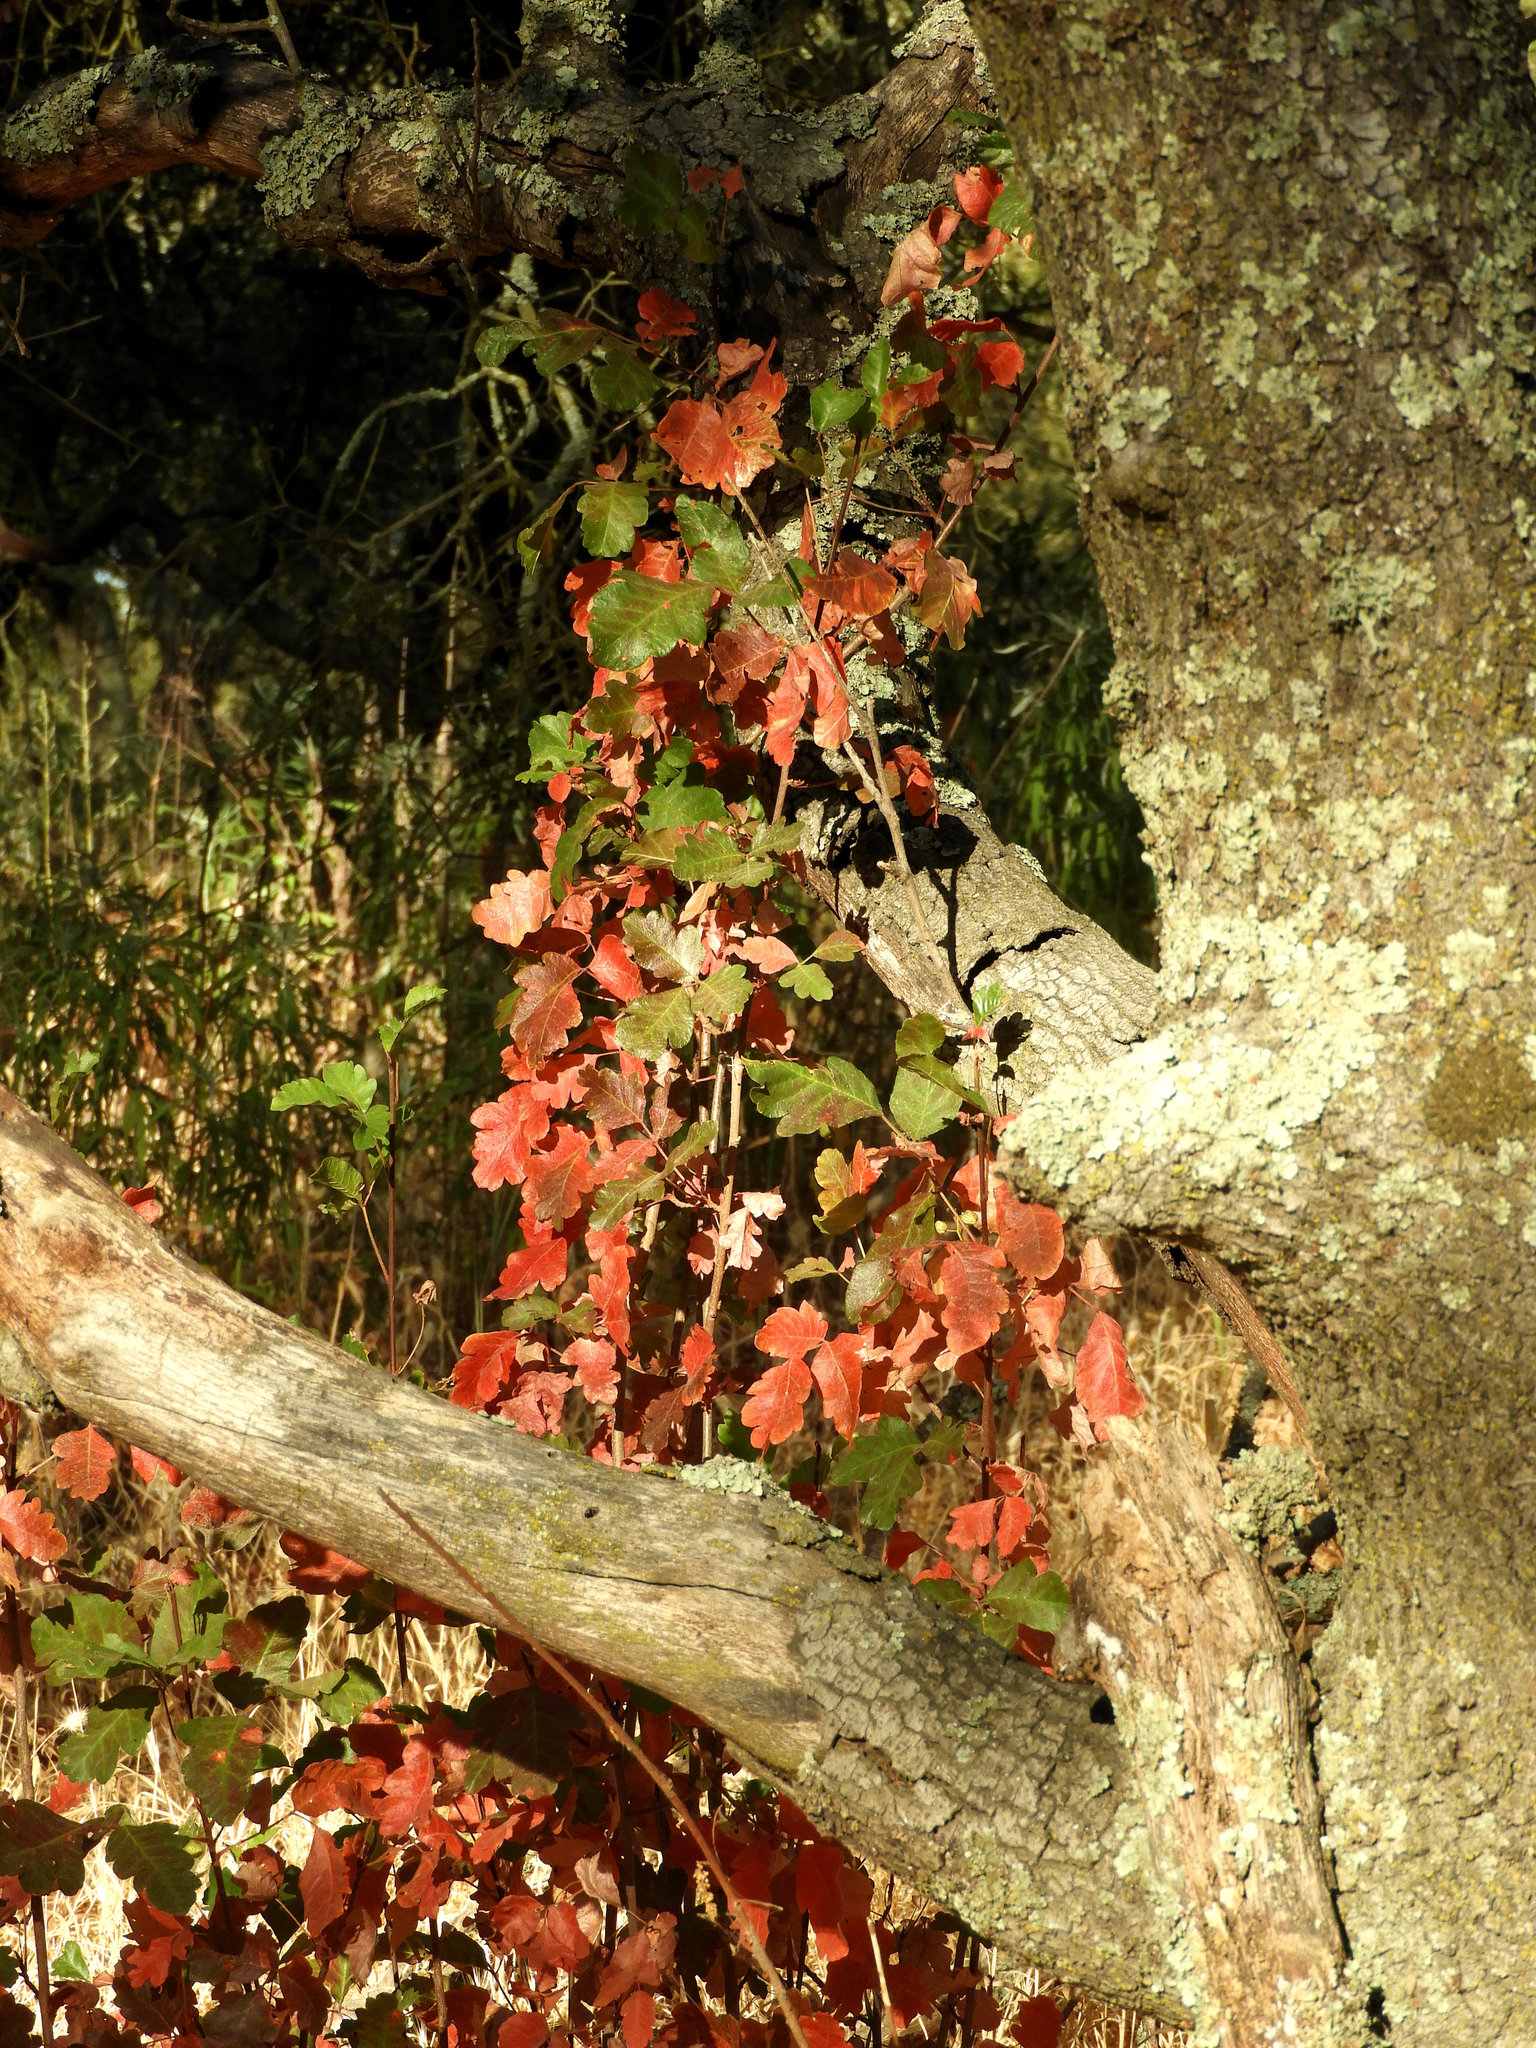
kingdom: Plantae
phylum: Tracheophyta
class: Magnoliopsida
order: Sapindales
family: Anacardiaceae
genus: Toxicodendron
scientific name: Toxicodendron diversilobum
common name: Pacific poison-oak
